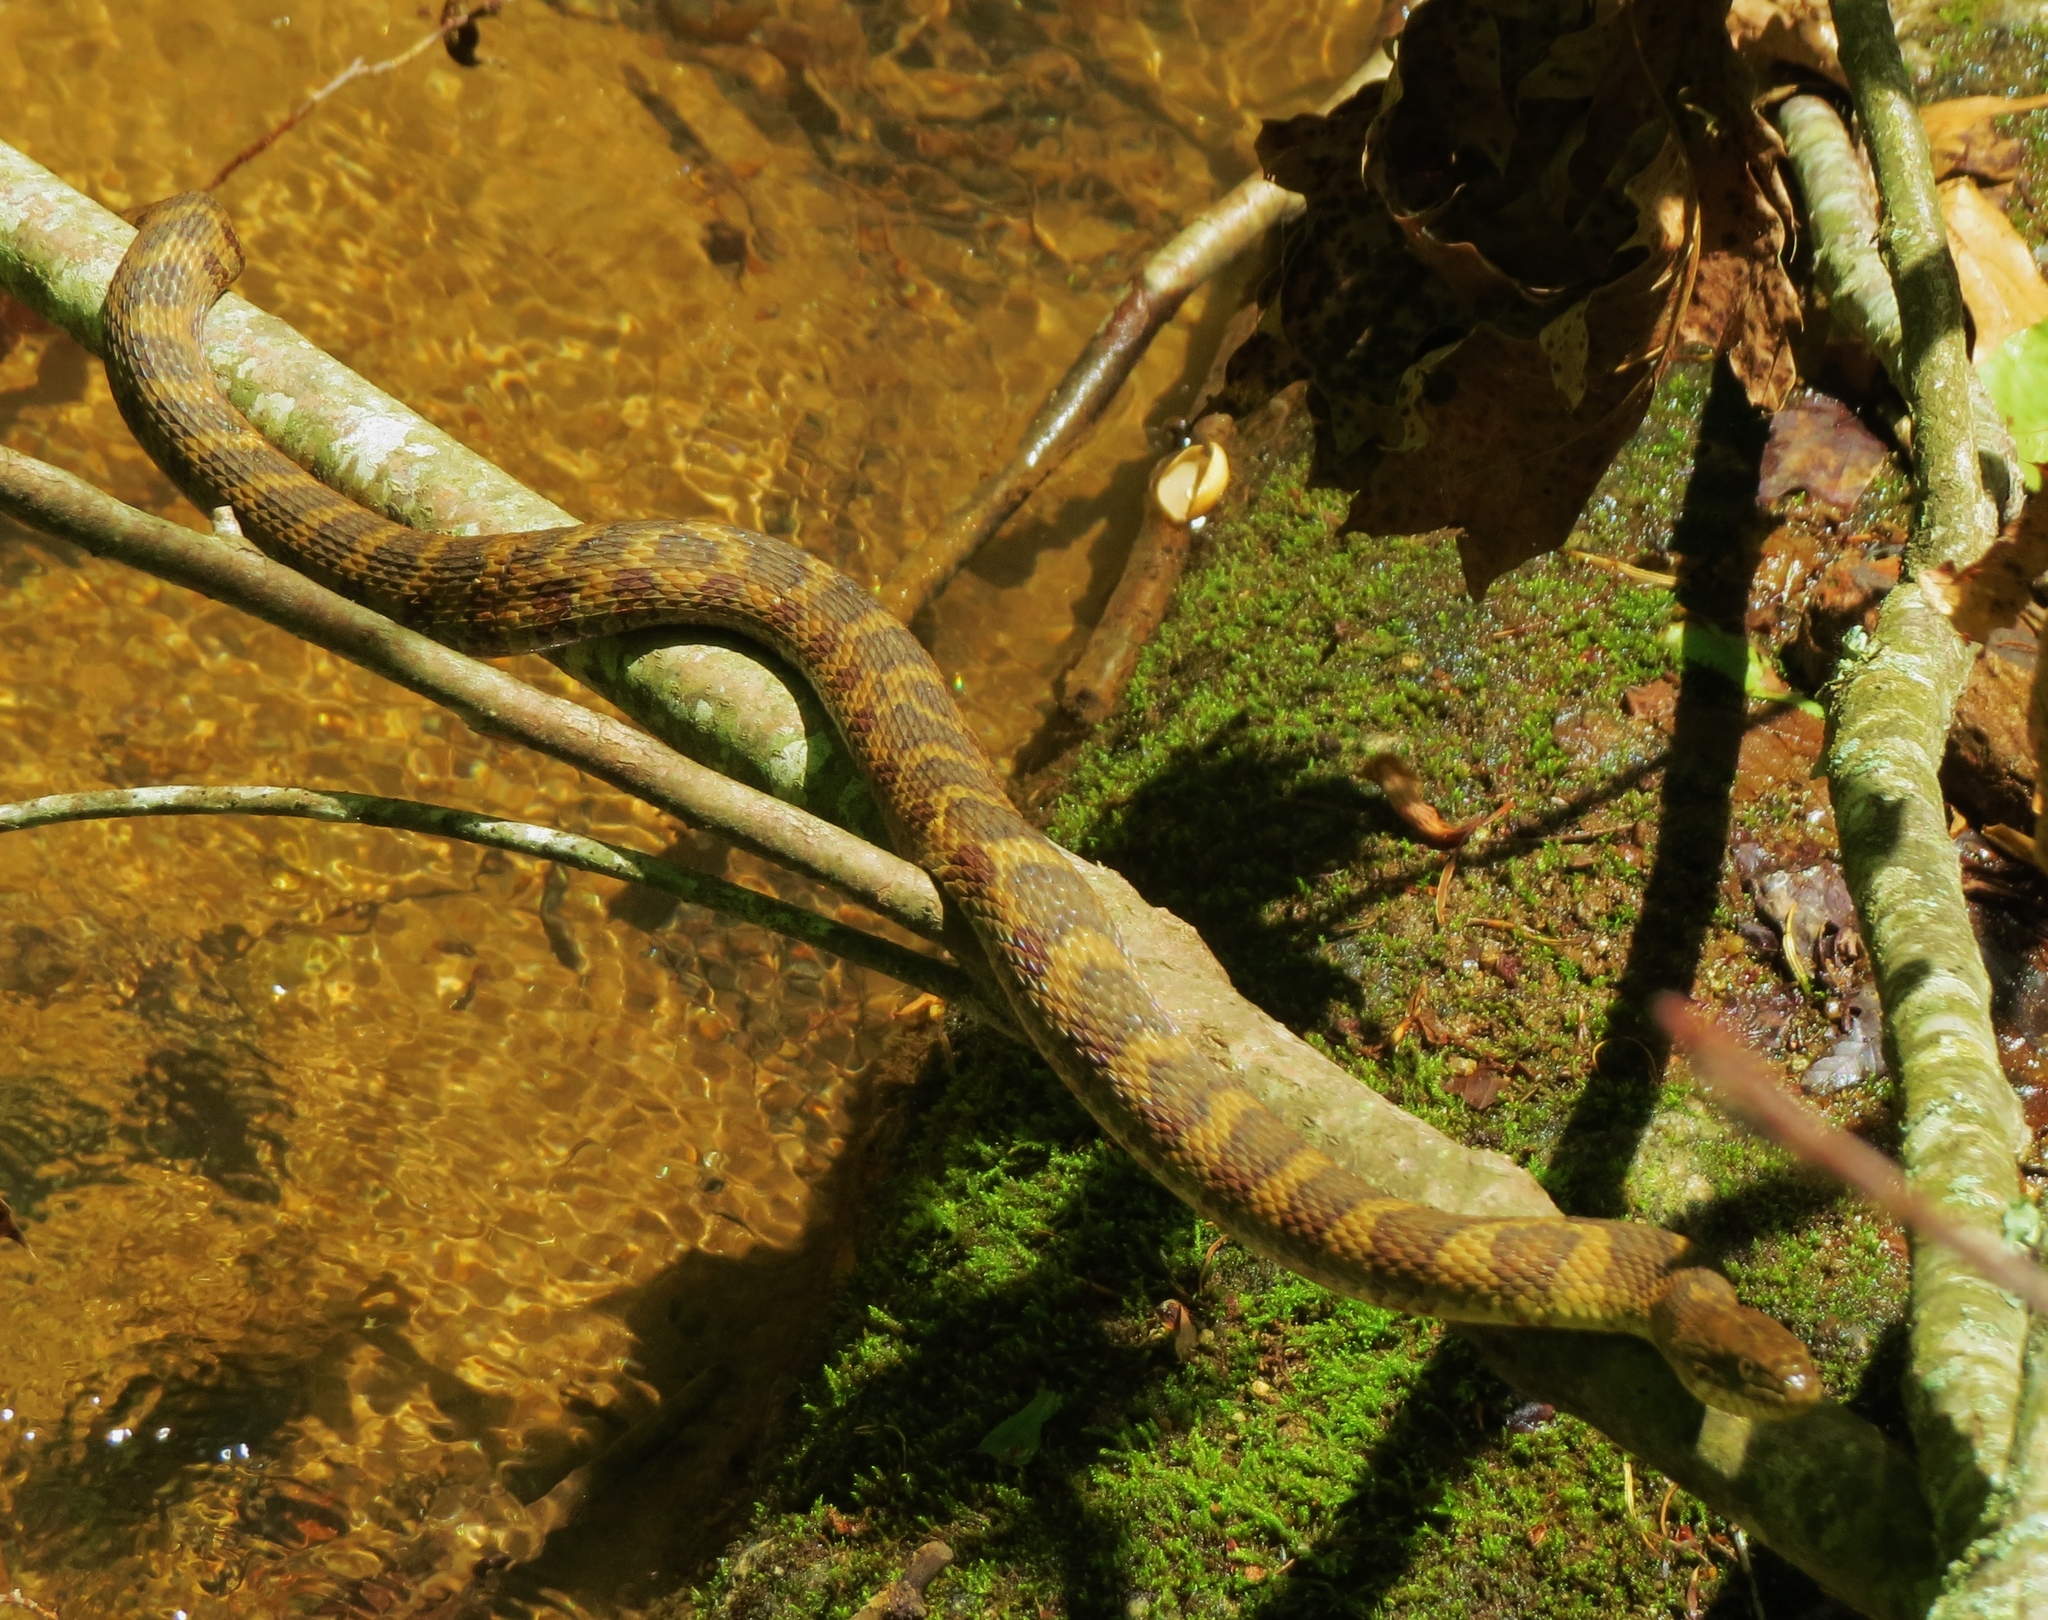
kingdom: Animalia
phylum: Chordata
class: Squamata
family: Colubridae
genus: Nerodia
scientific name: Nerodia sipedon
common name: Northern water snake
